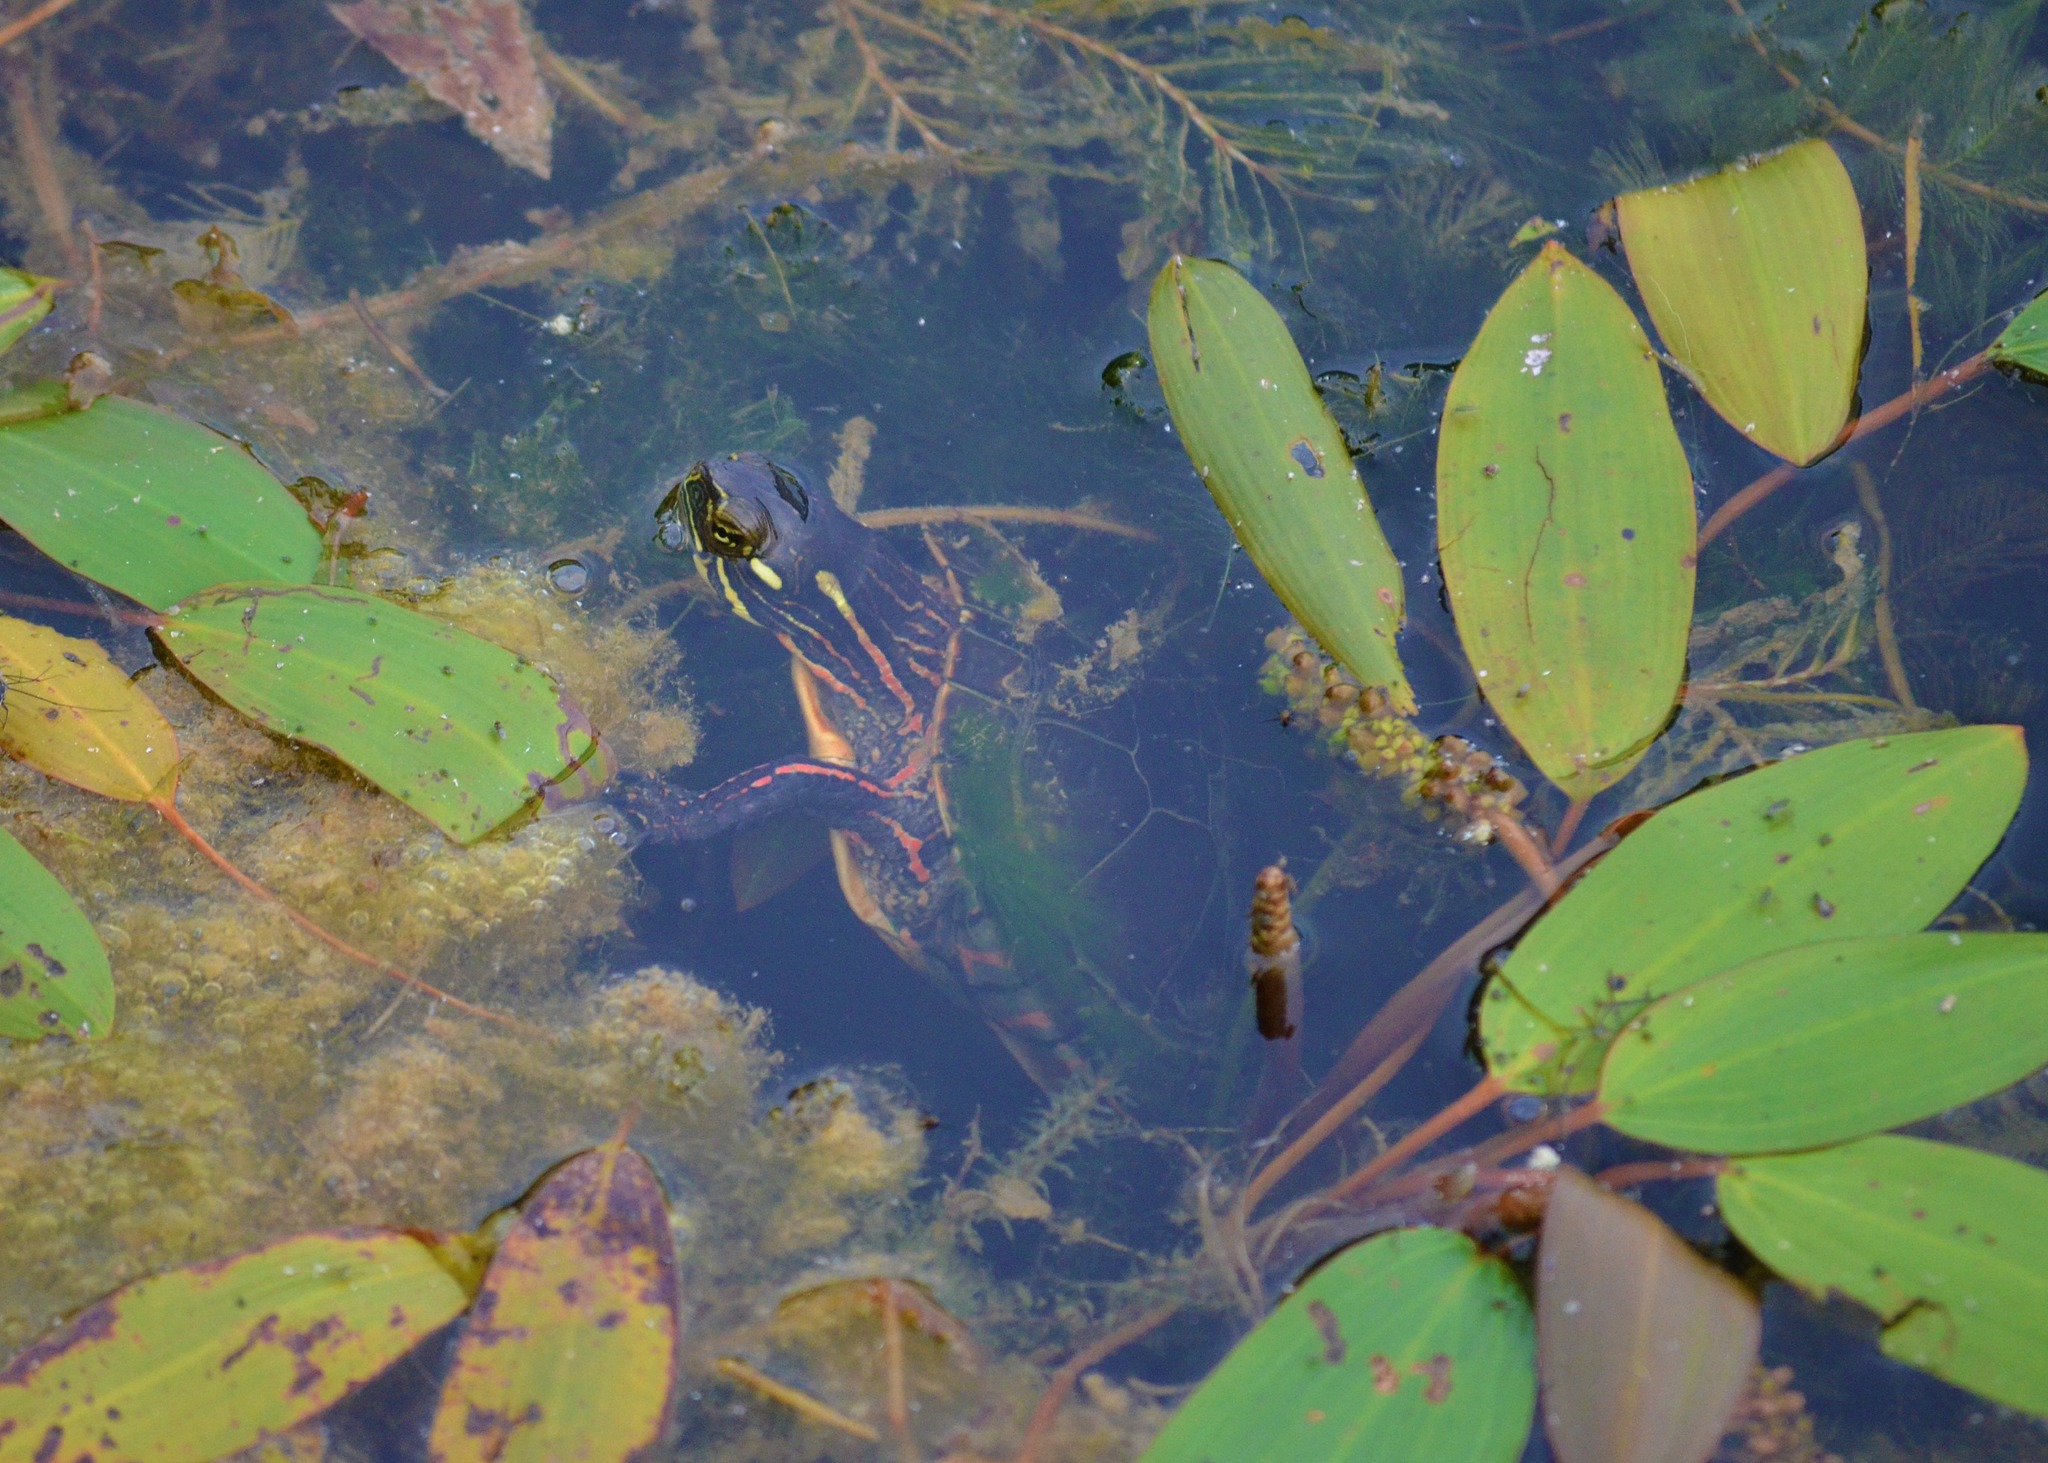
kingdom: Animalia
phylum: Chordata
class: Testudines
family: Emydidae
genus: Chrysemys
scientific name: Chrysemys picta
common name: Painted turtle
